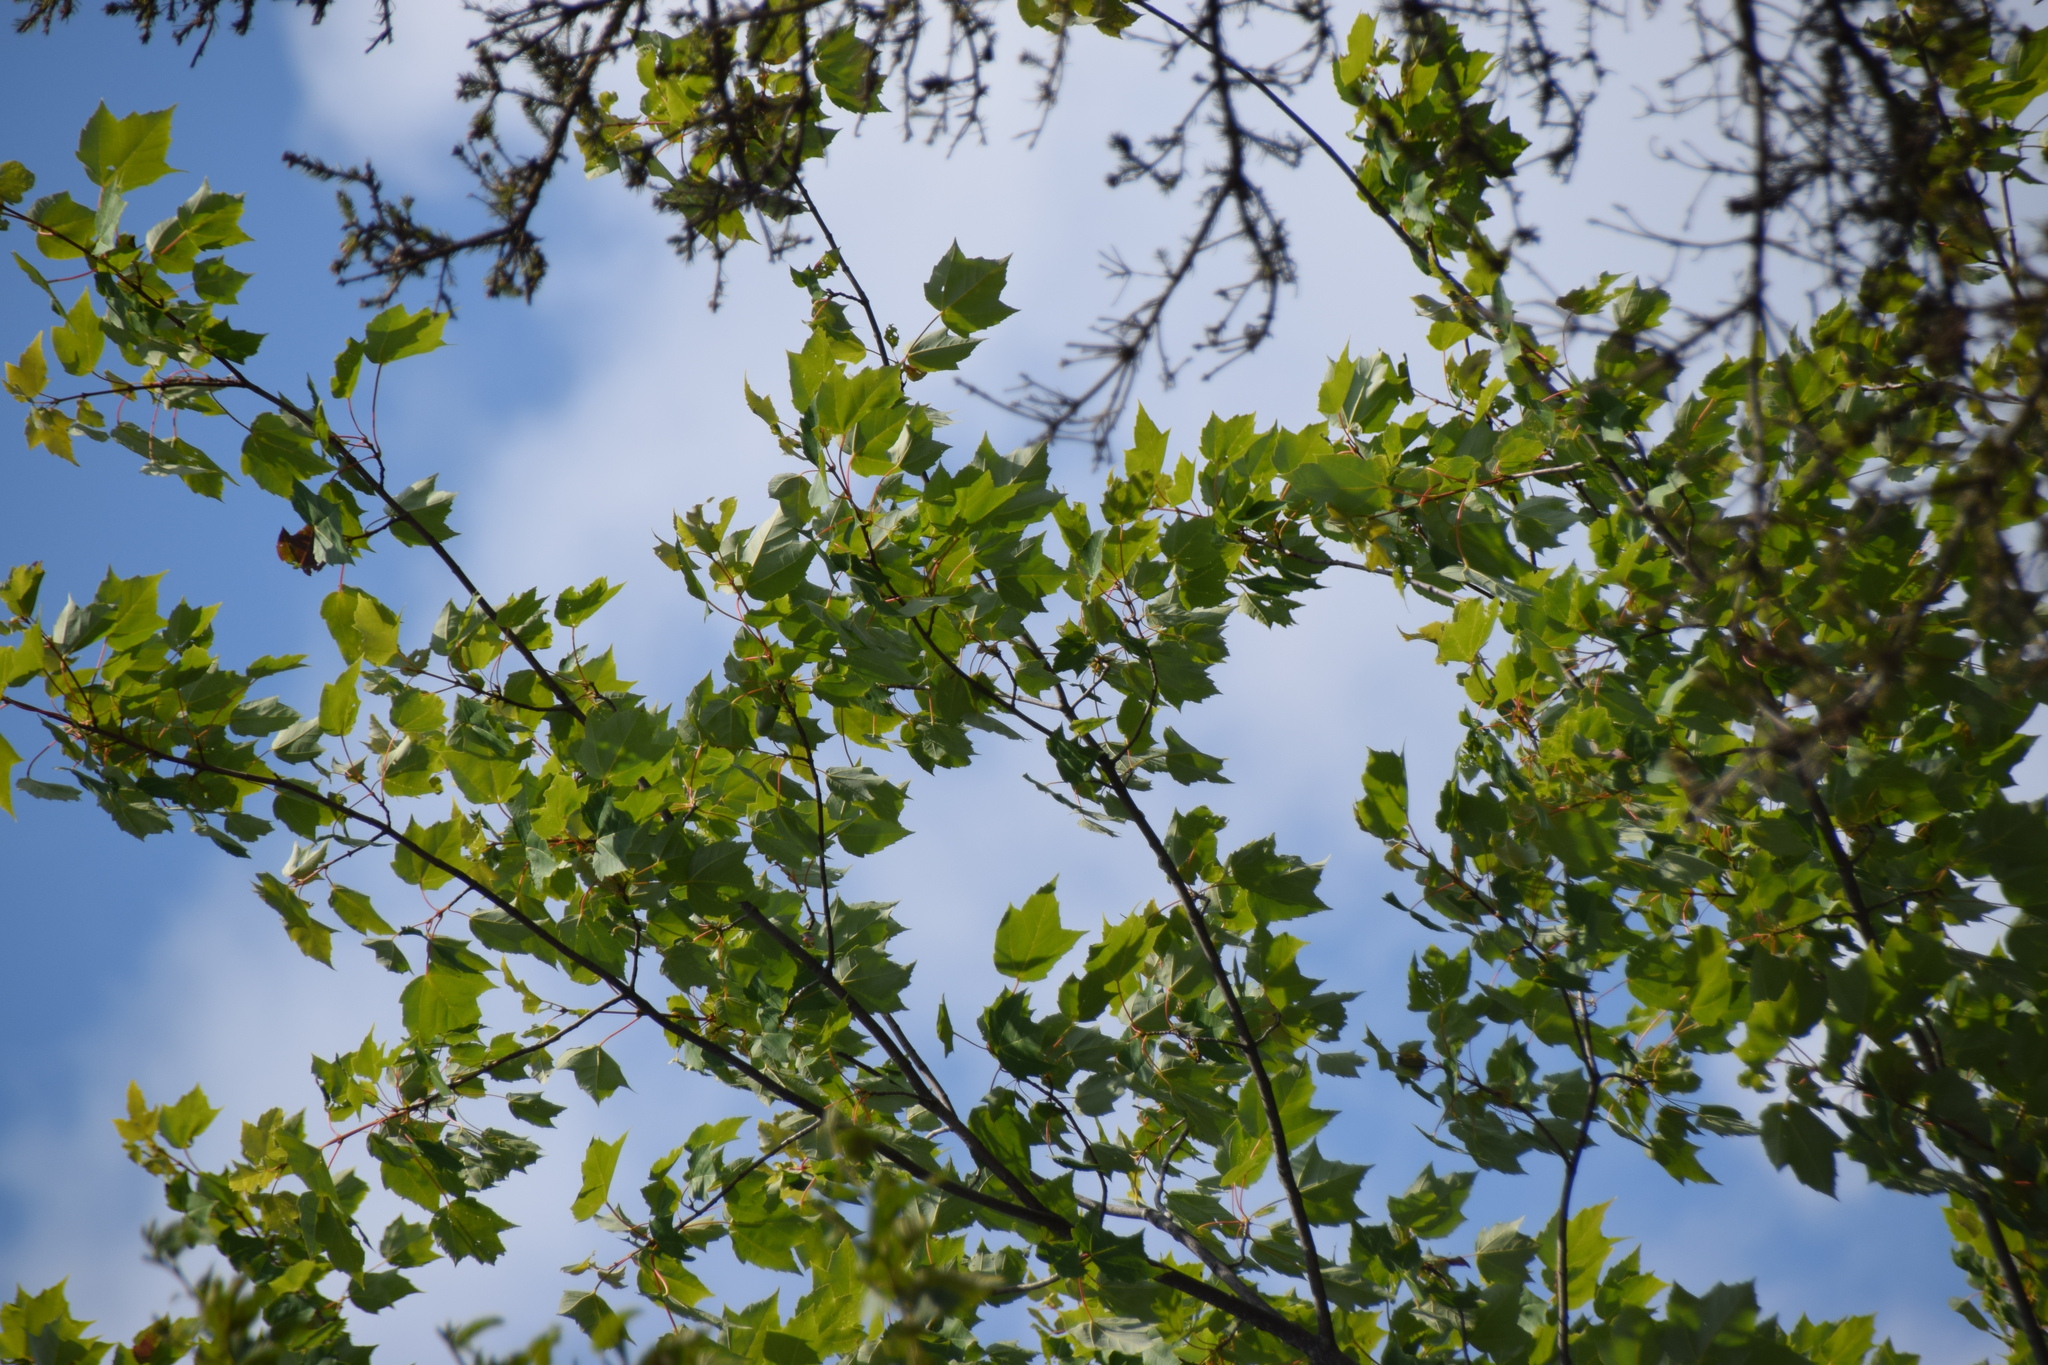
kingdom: Plantae
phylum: Tracheophyta
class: Magnoliopsida
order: Sapindales
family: Sapindaceae
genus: Acer
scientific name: Acer rubrum
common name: Red maple
